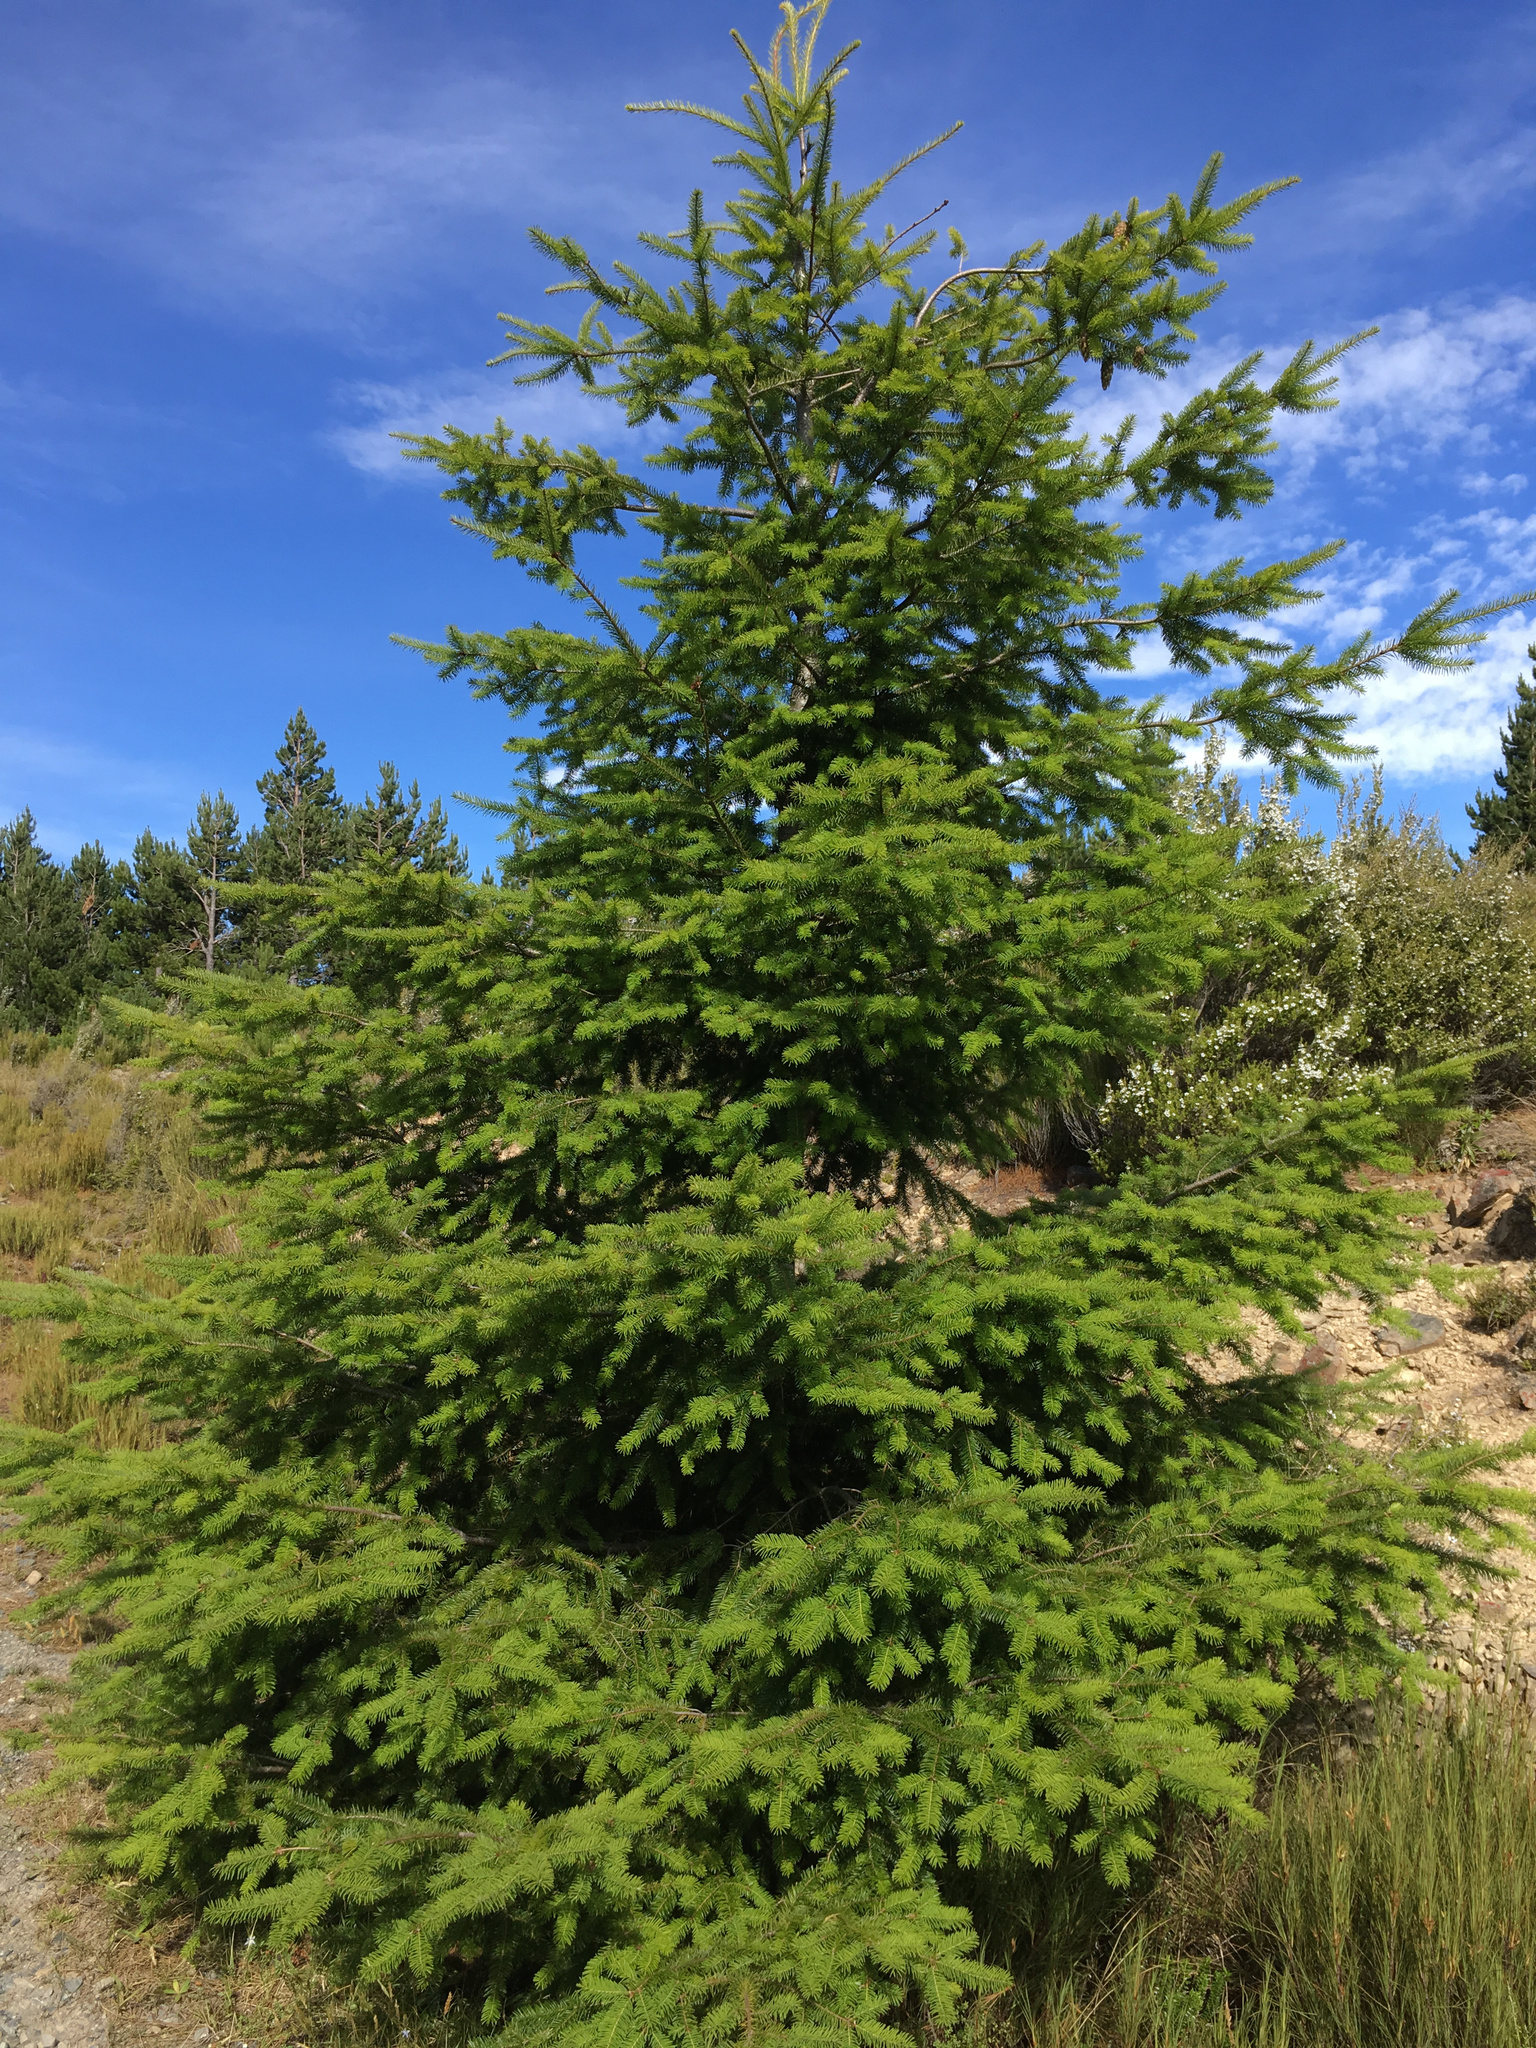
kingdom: Plantae
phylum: Tracheophyta
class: Pinopsida
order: Pinales
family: Pinaceae
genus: Pseudotsuga
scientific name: Pseudotsuga menziesii
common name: Douglas fir
